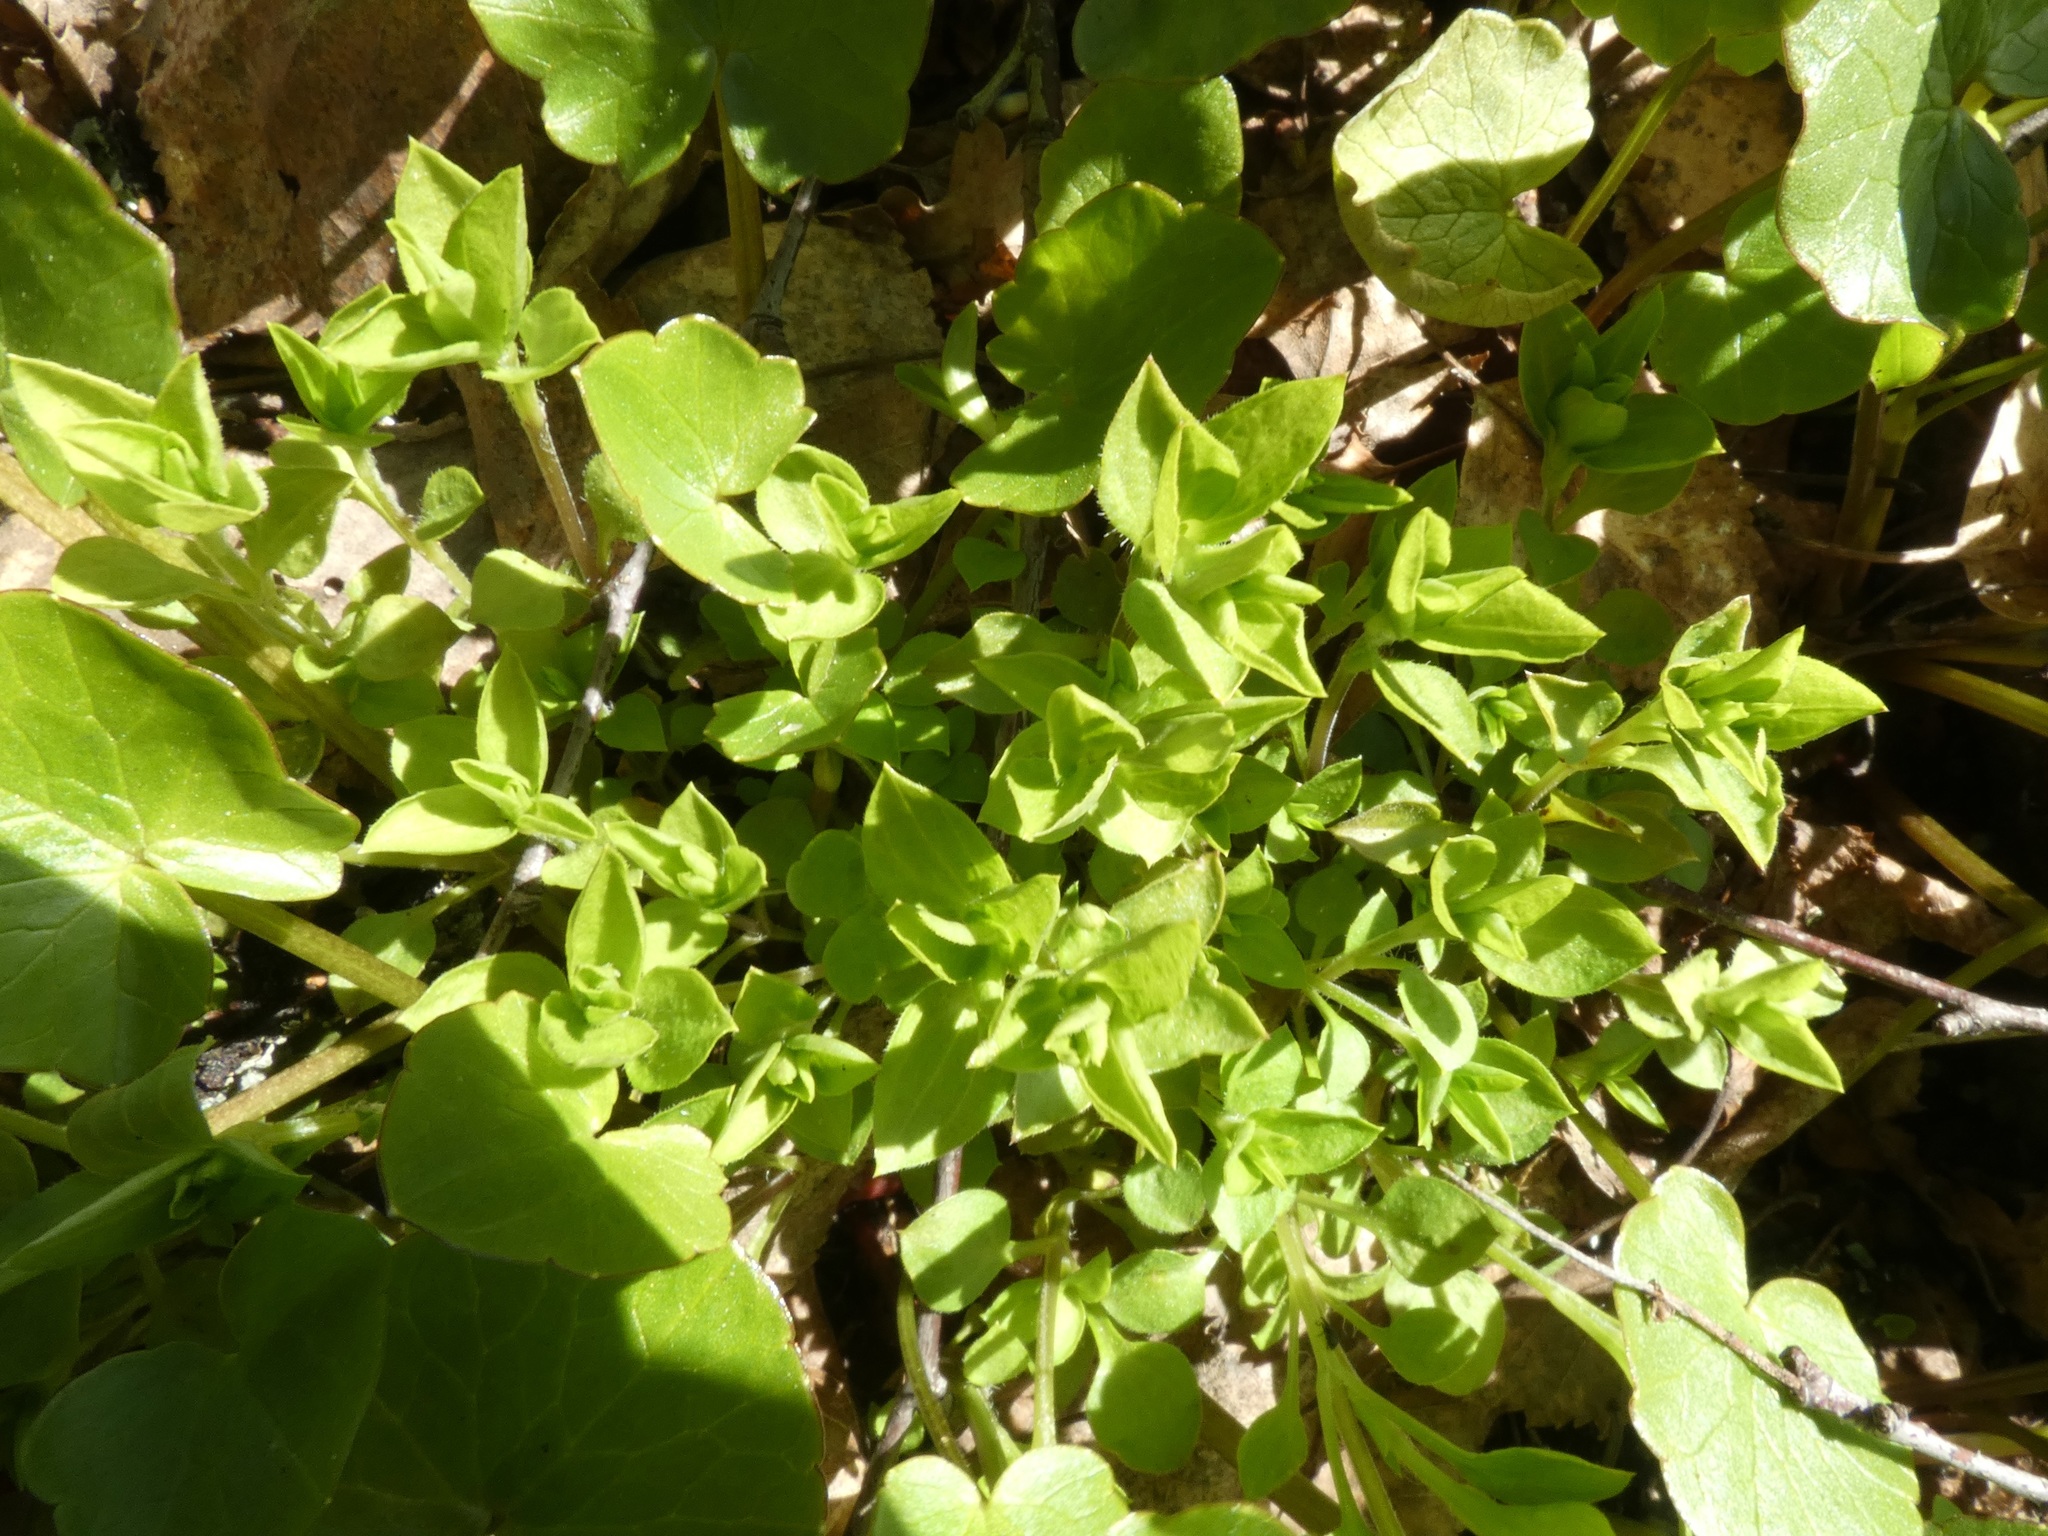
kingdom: Plantae
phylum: Tracheophyta
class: Magnoliopsida
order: Caryophyllales
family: Caryophyllaceae
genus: Moehringia
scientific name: Moehringia trinervia
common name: Three-nerved sandwort
